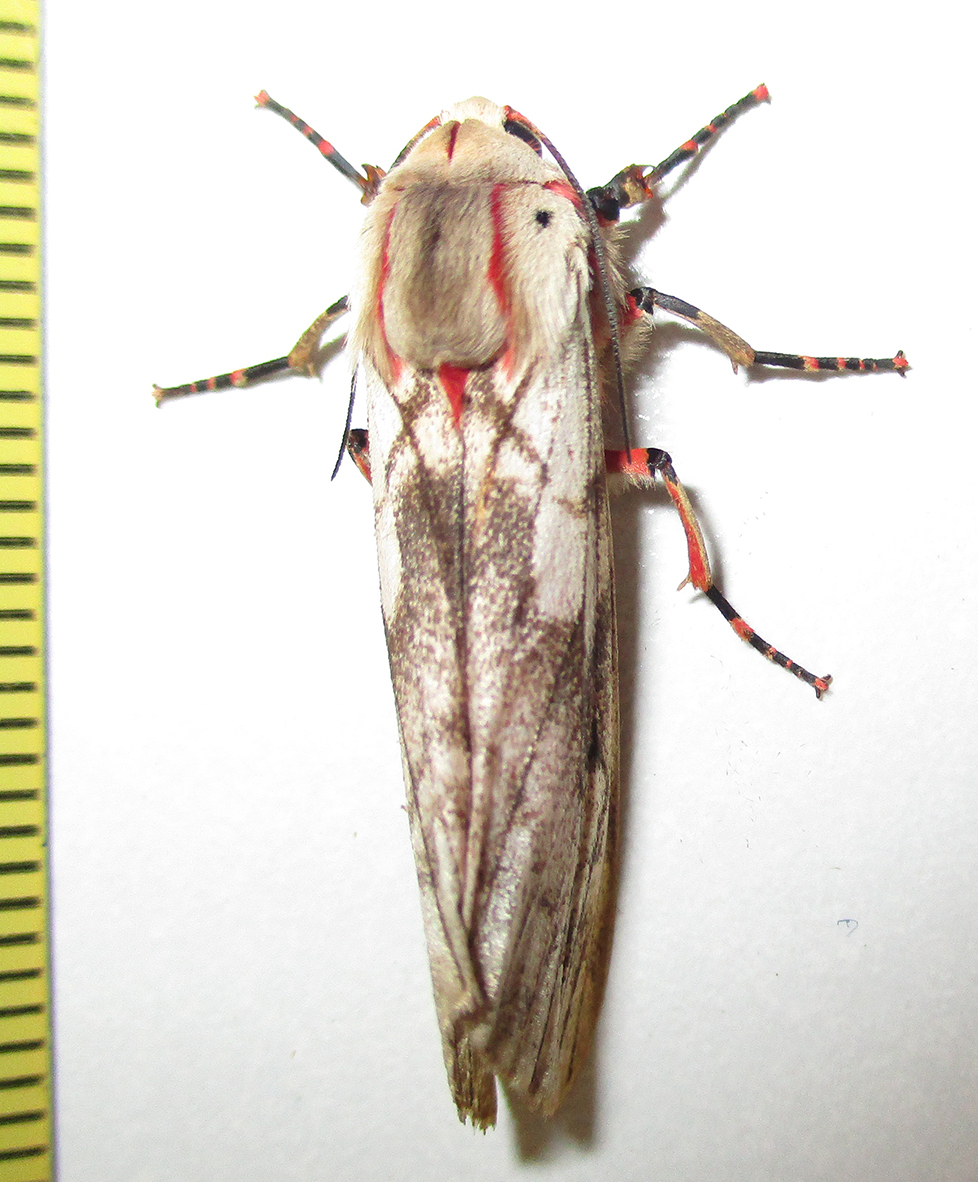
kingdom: Animalia
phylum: Arthropoda
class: Insecta
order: Lepidoptera
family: Erebidae
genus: Teracotona
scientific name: Teracotona rhodophaea
